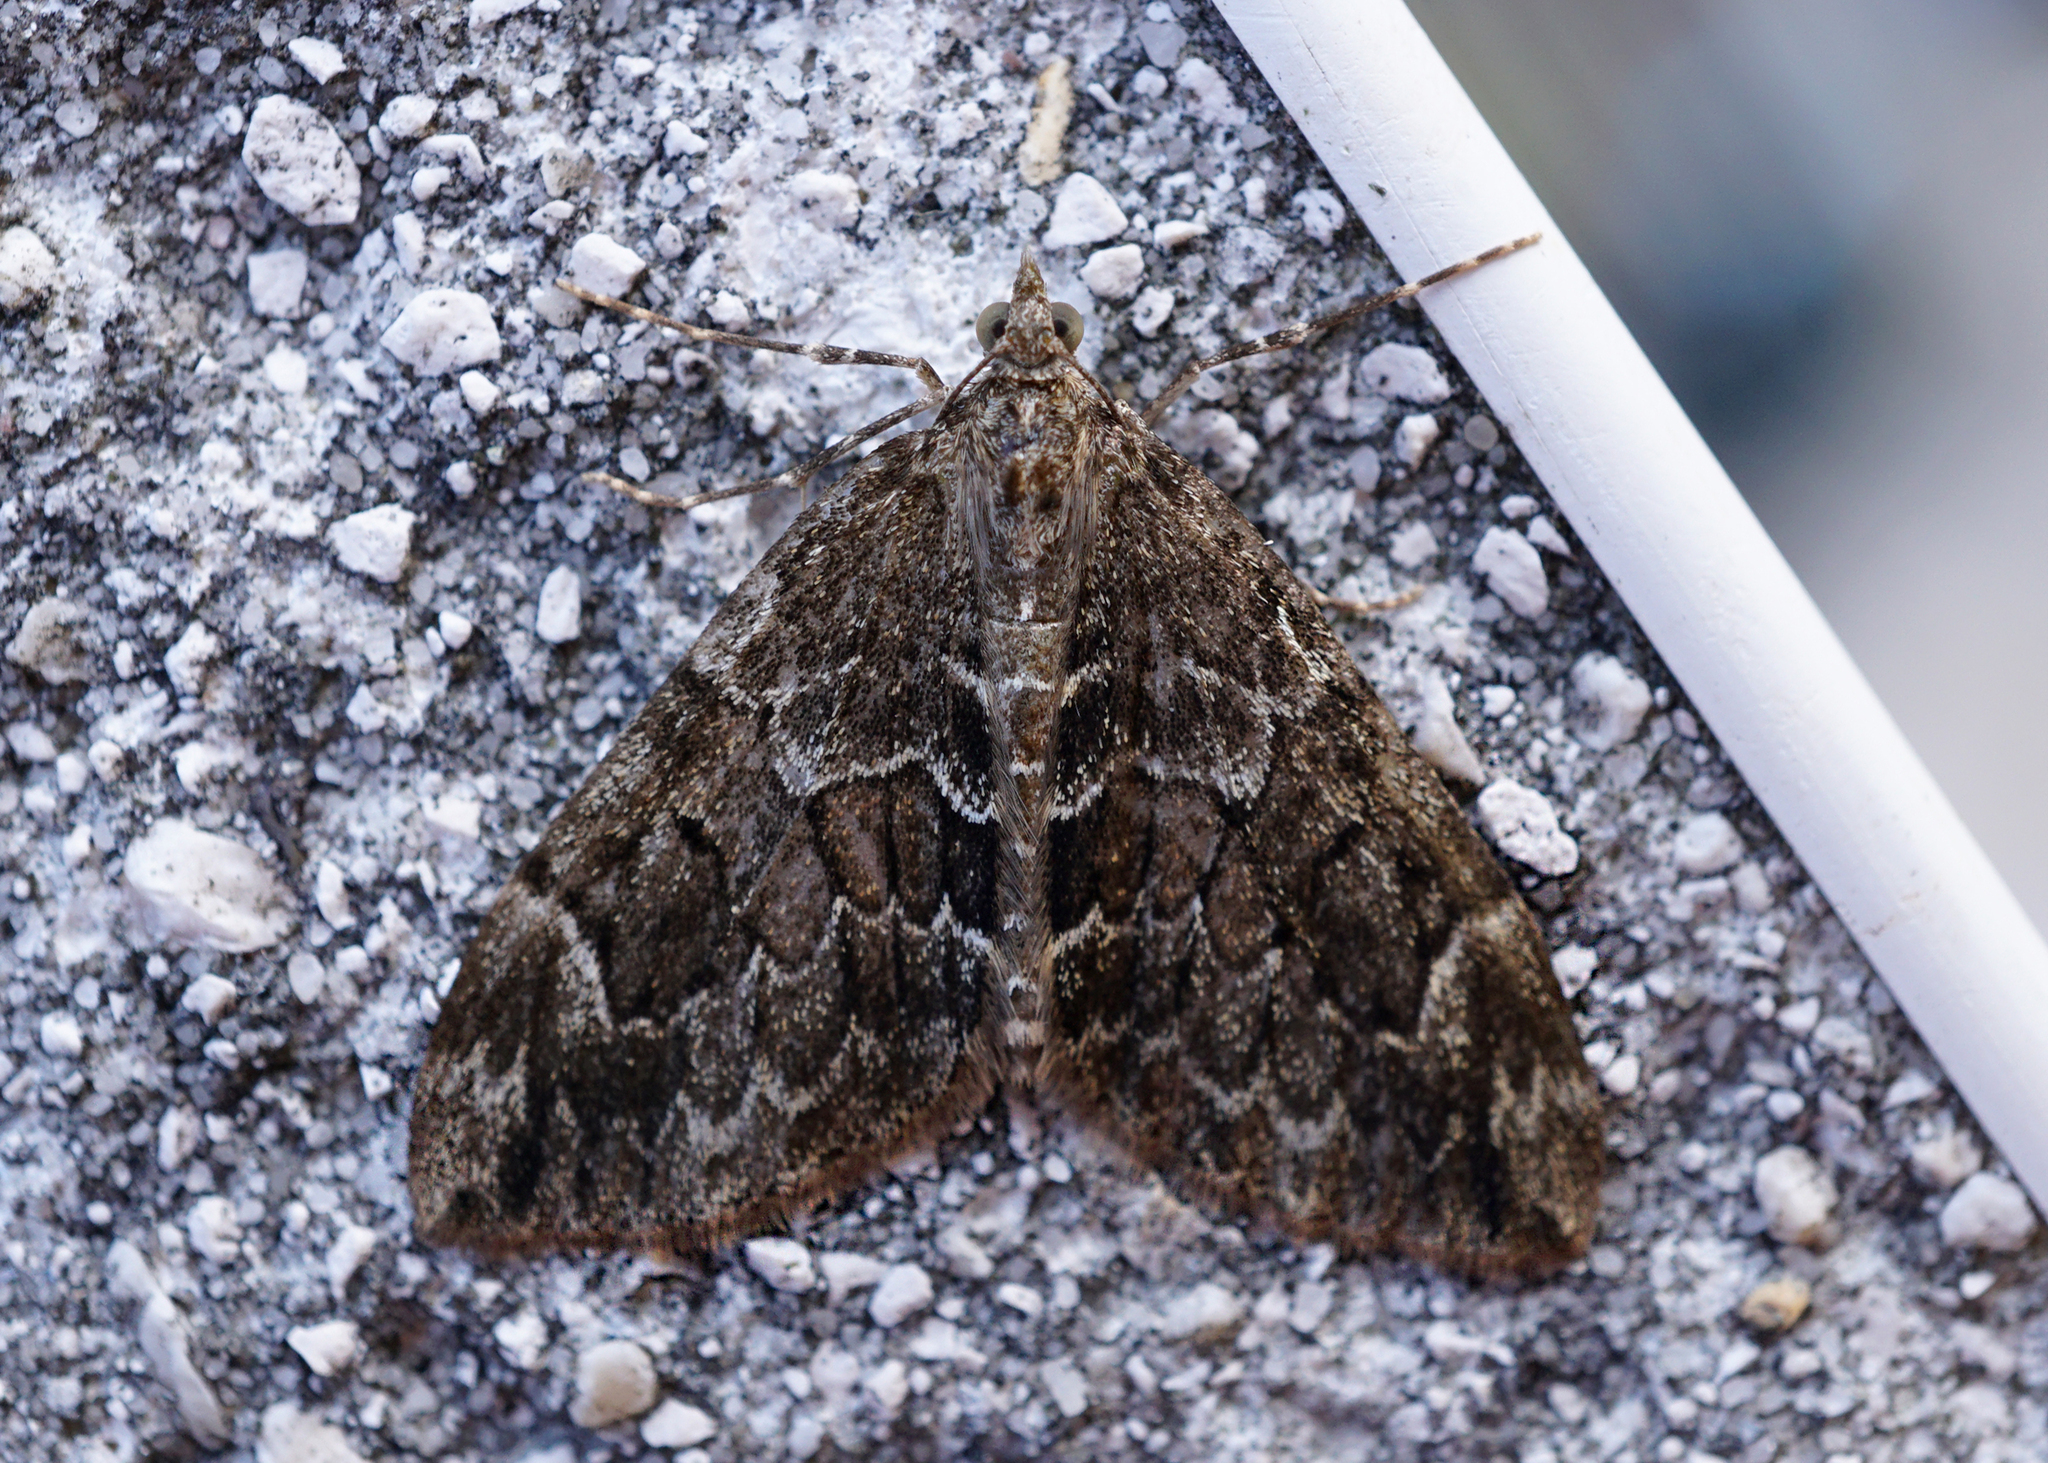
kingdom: Animalia
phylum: Arthropoda
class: Insecta
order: Lepidoptera
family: Geometridae
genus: Thera
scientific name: Thera britannica
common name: Spruce carpet
